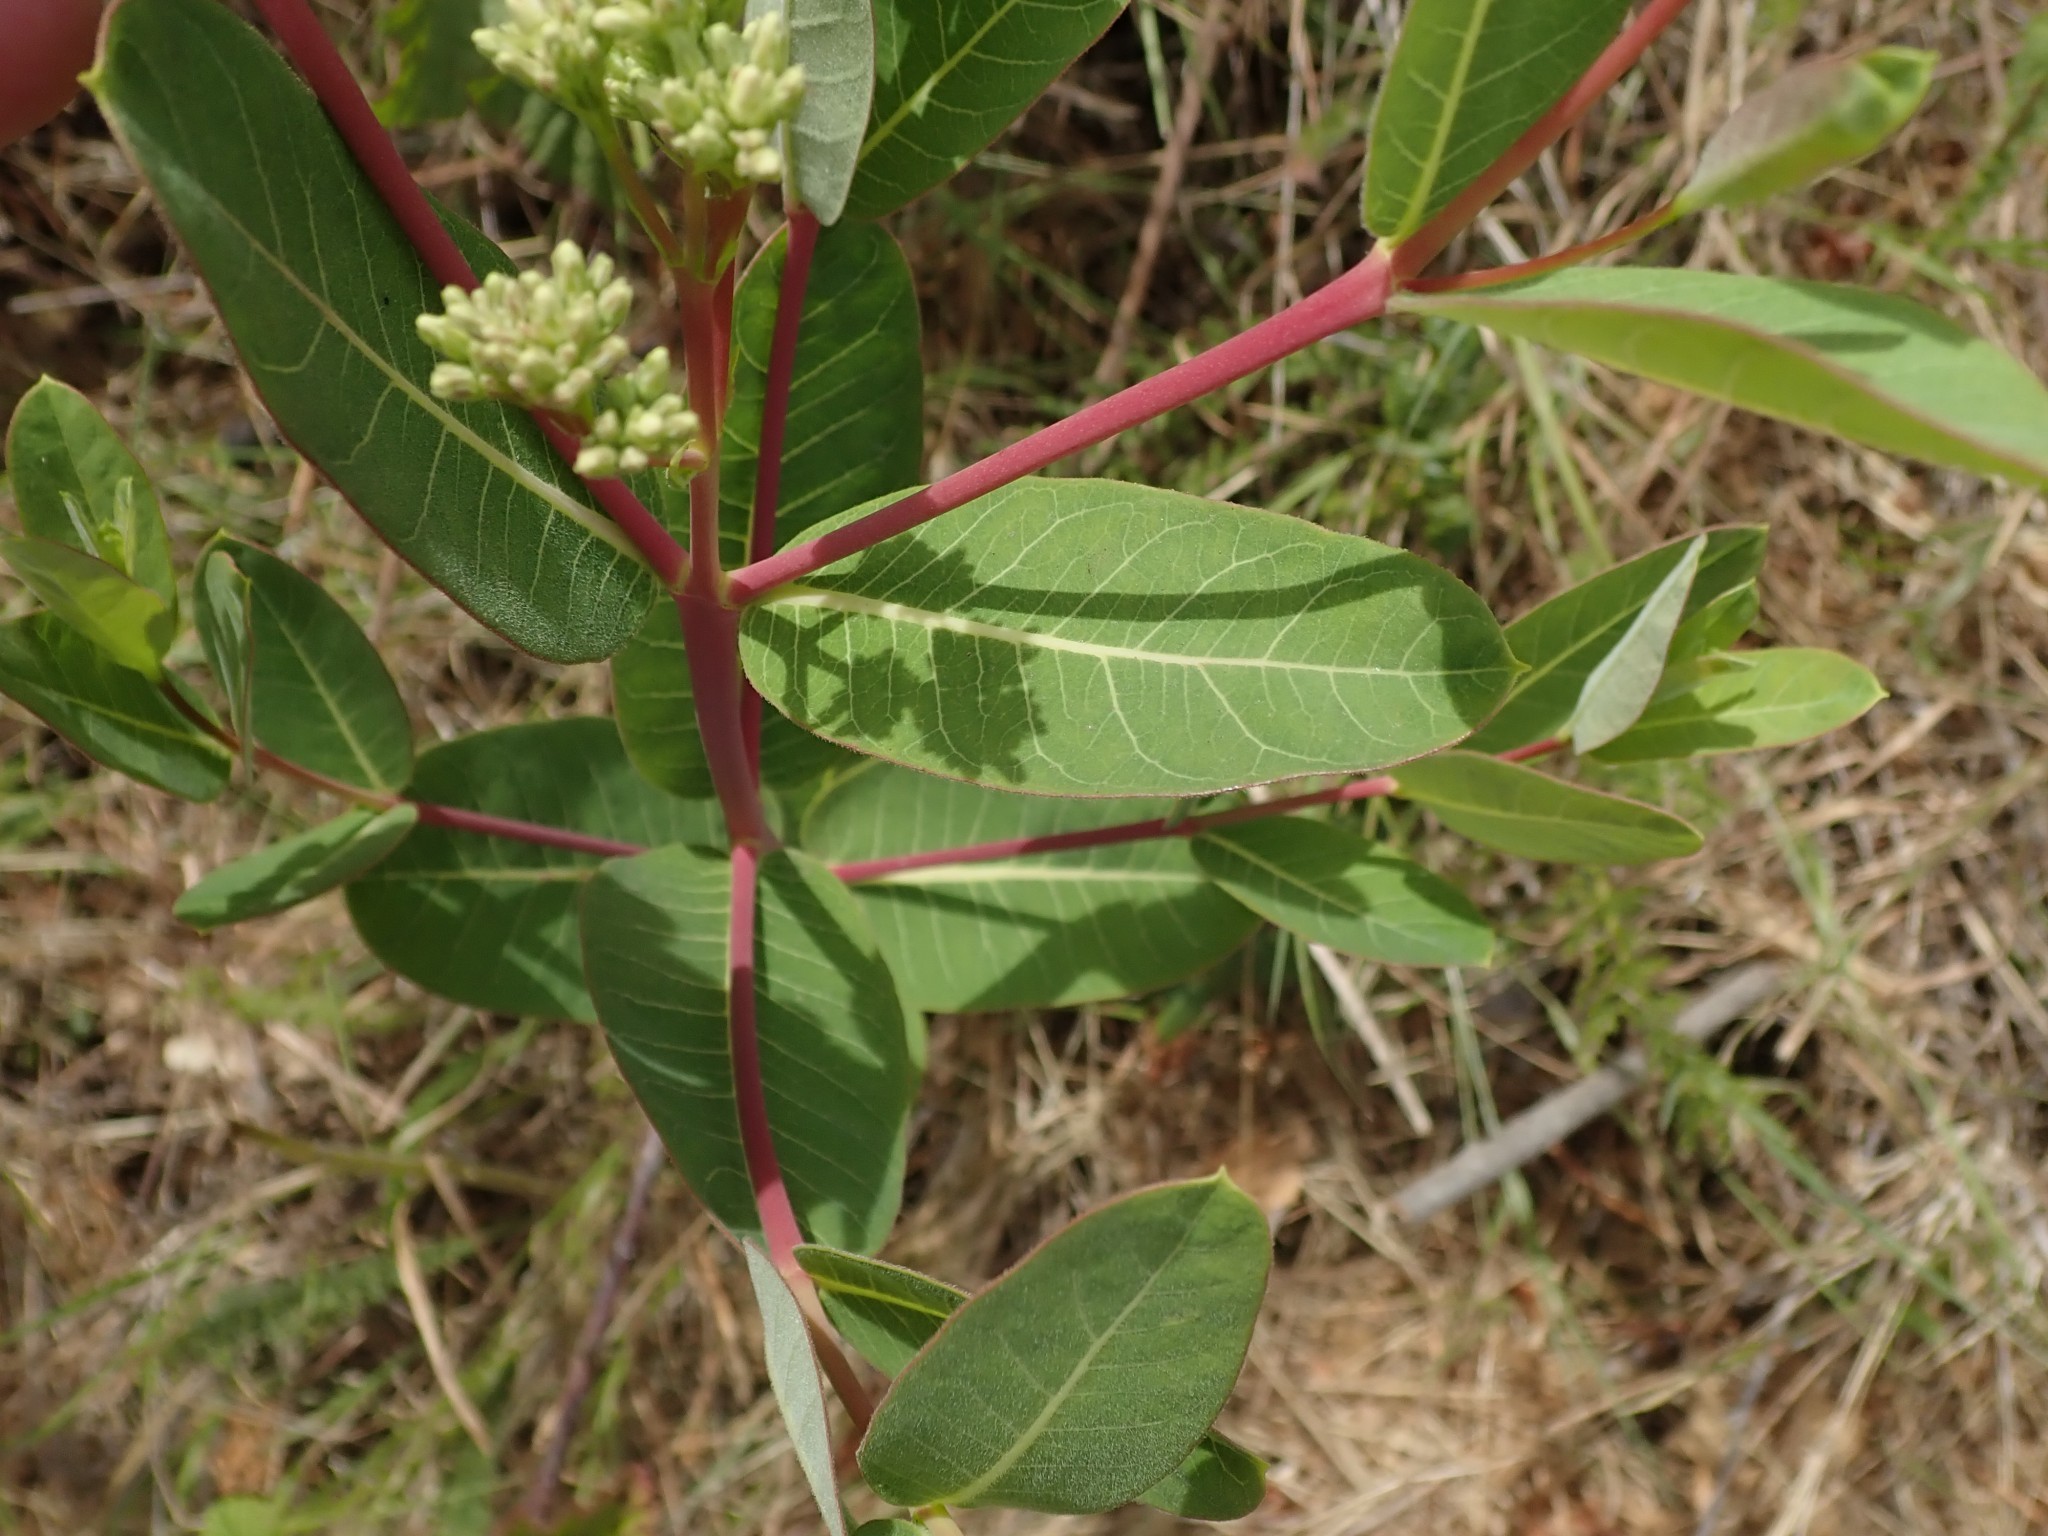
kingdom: Plantae
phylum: Tracheophyta
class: Magnoliopsida
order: Gentianales
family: Apocynaceae
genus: Apocynum
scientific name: Apocynum cannabinum
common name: Hemp dogbane
